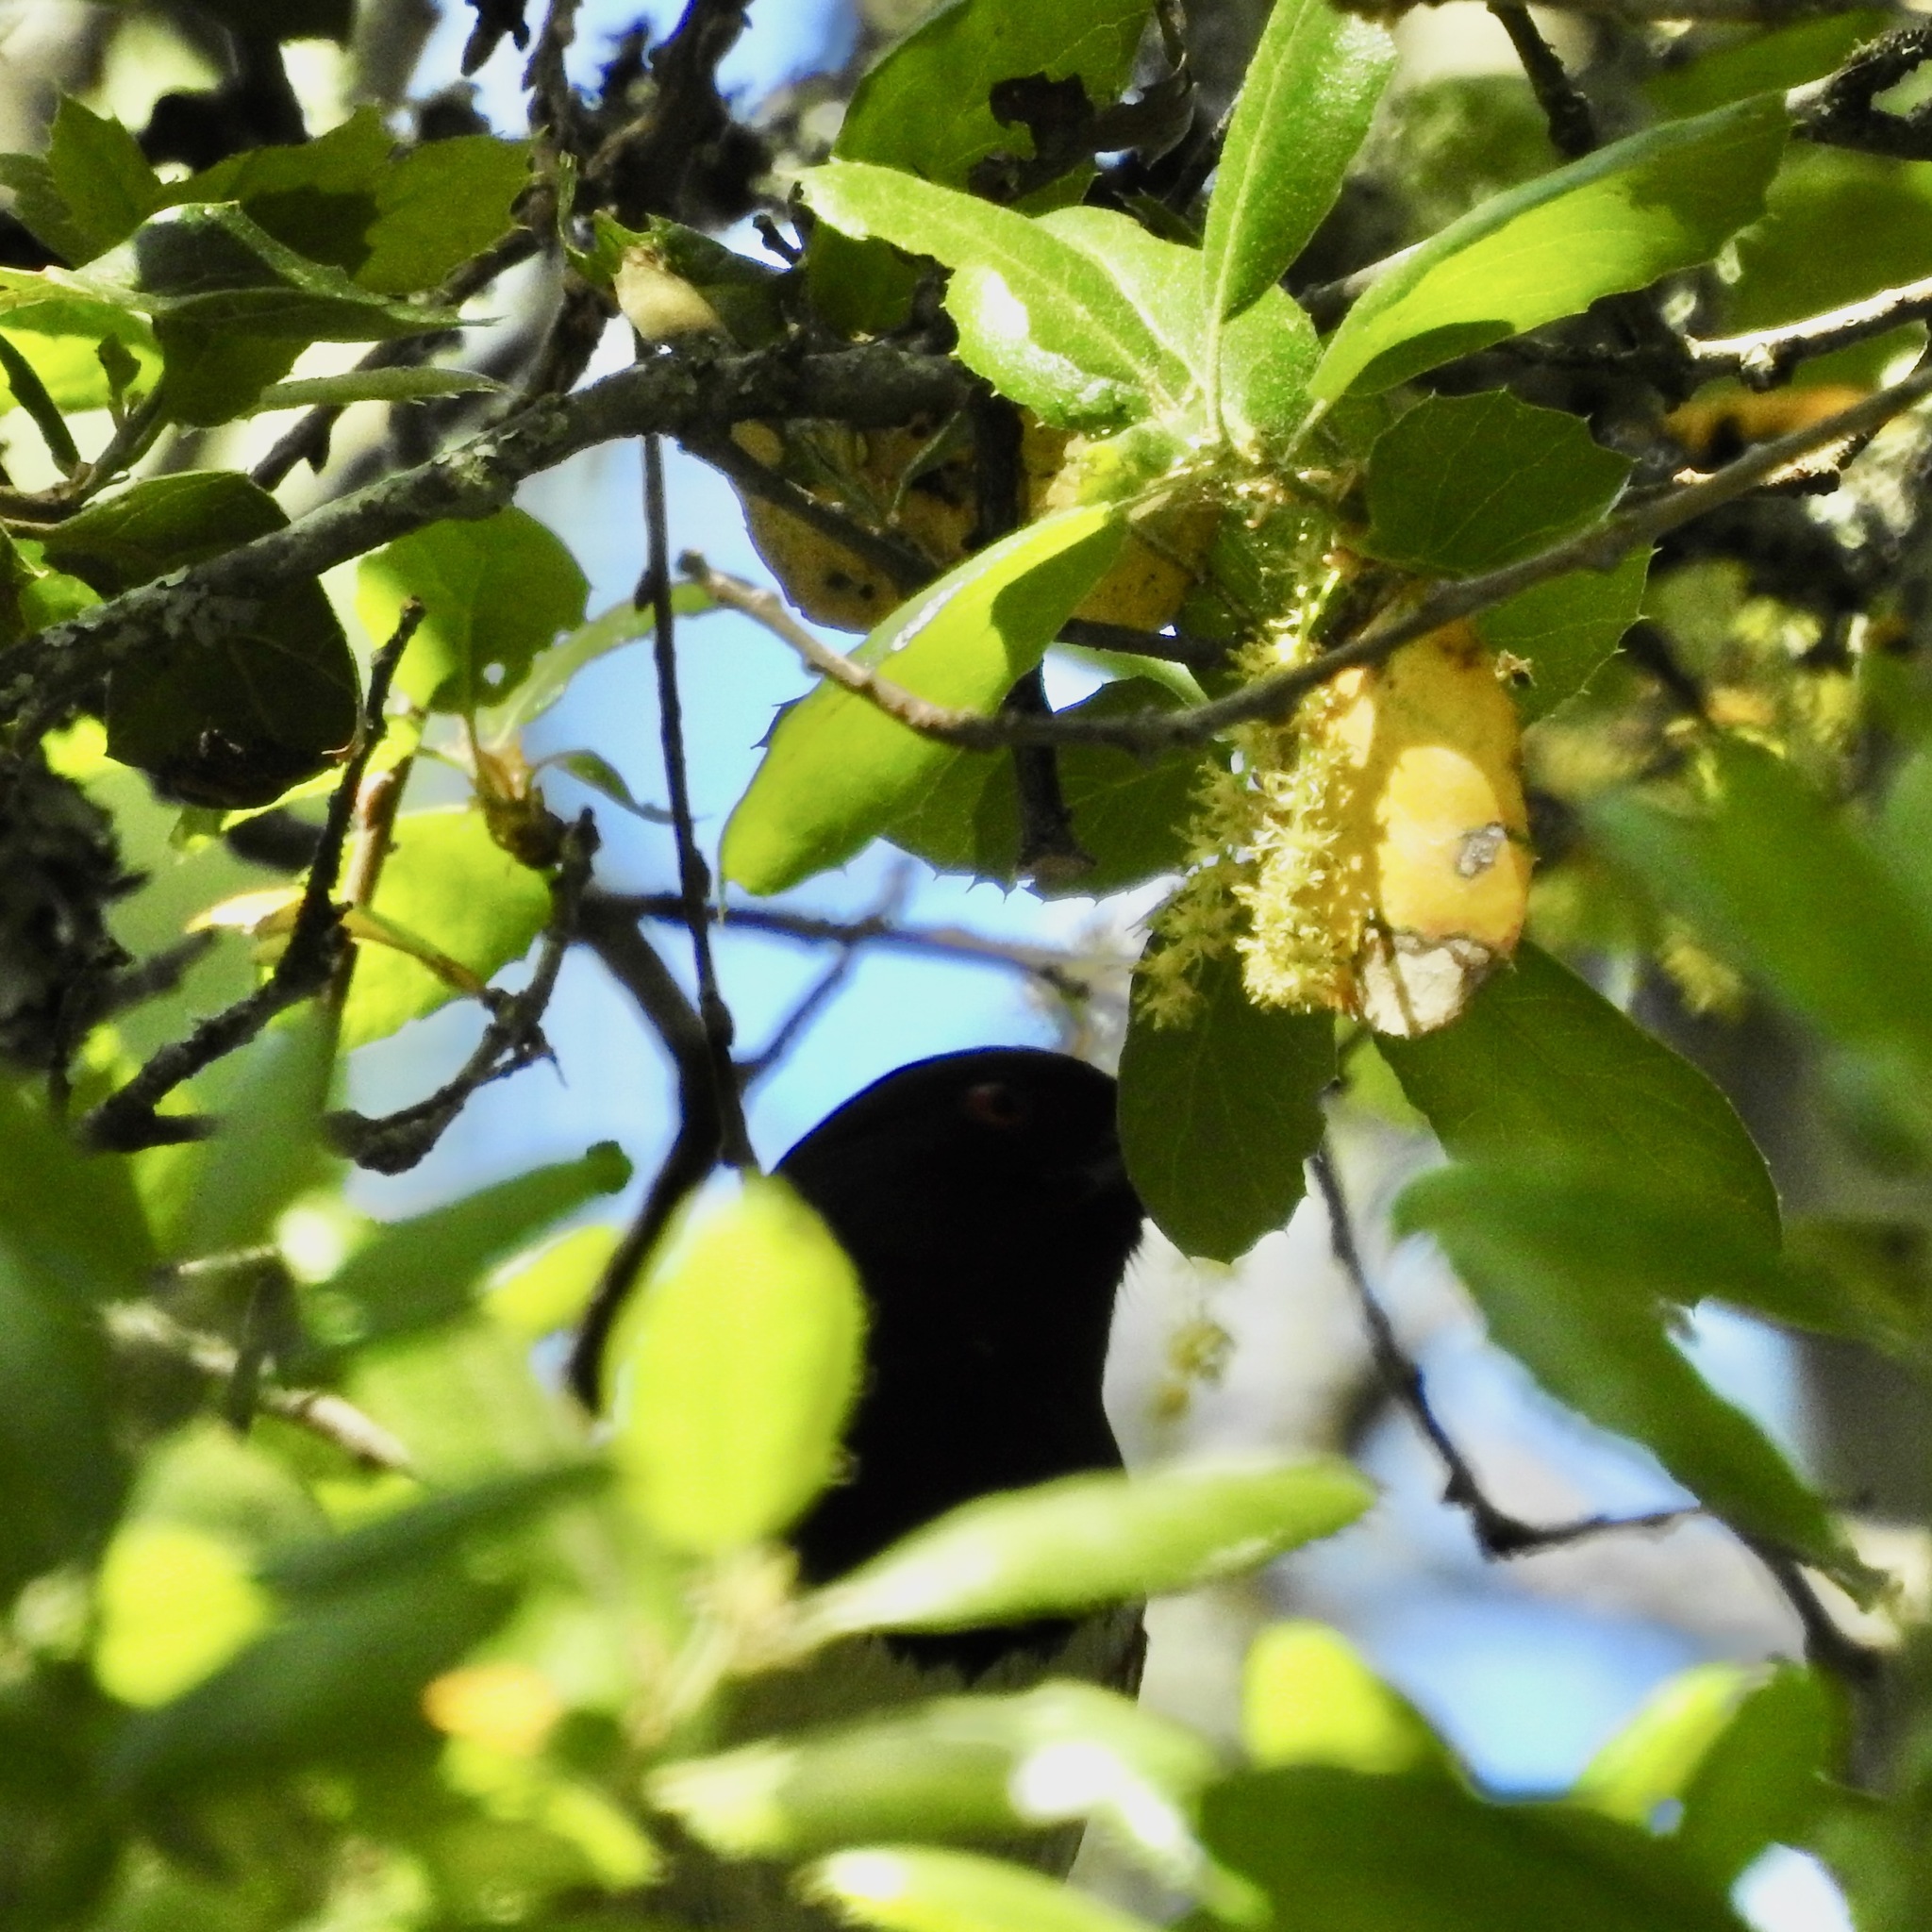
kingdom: Plantae
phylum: Tracheophyta
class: Magnoliopsida
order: Fagales
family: Fagaceae
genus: Quercus
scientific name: Quercus agrifolia
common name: California live oak
